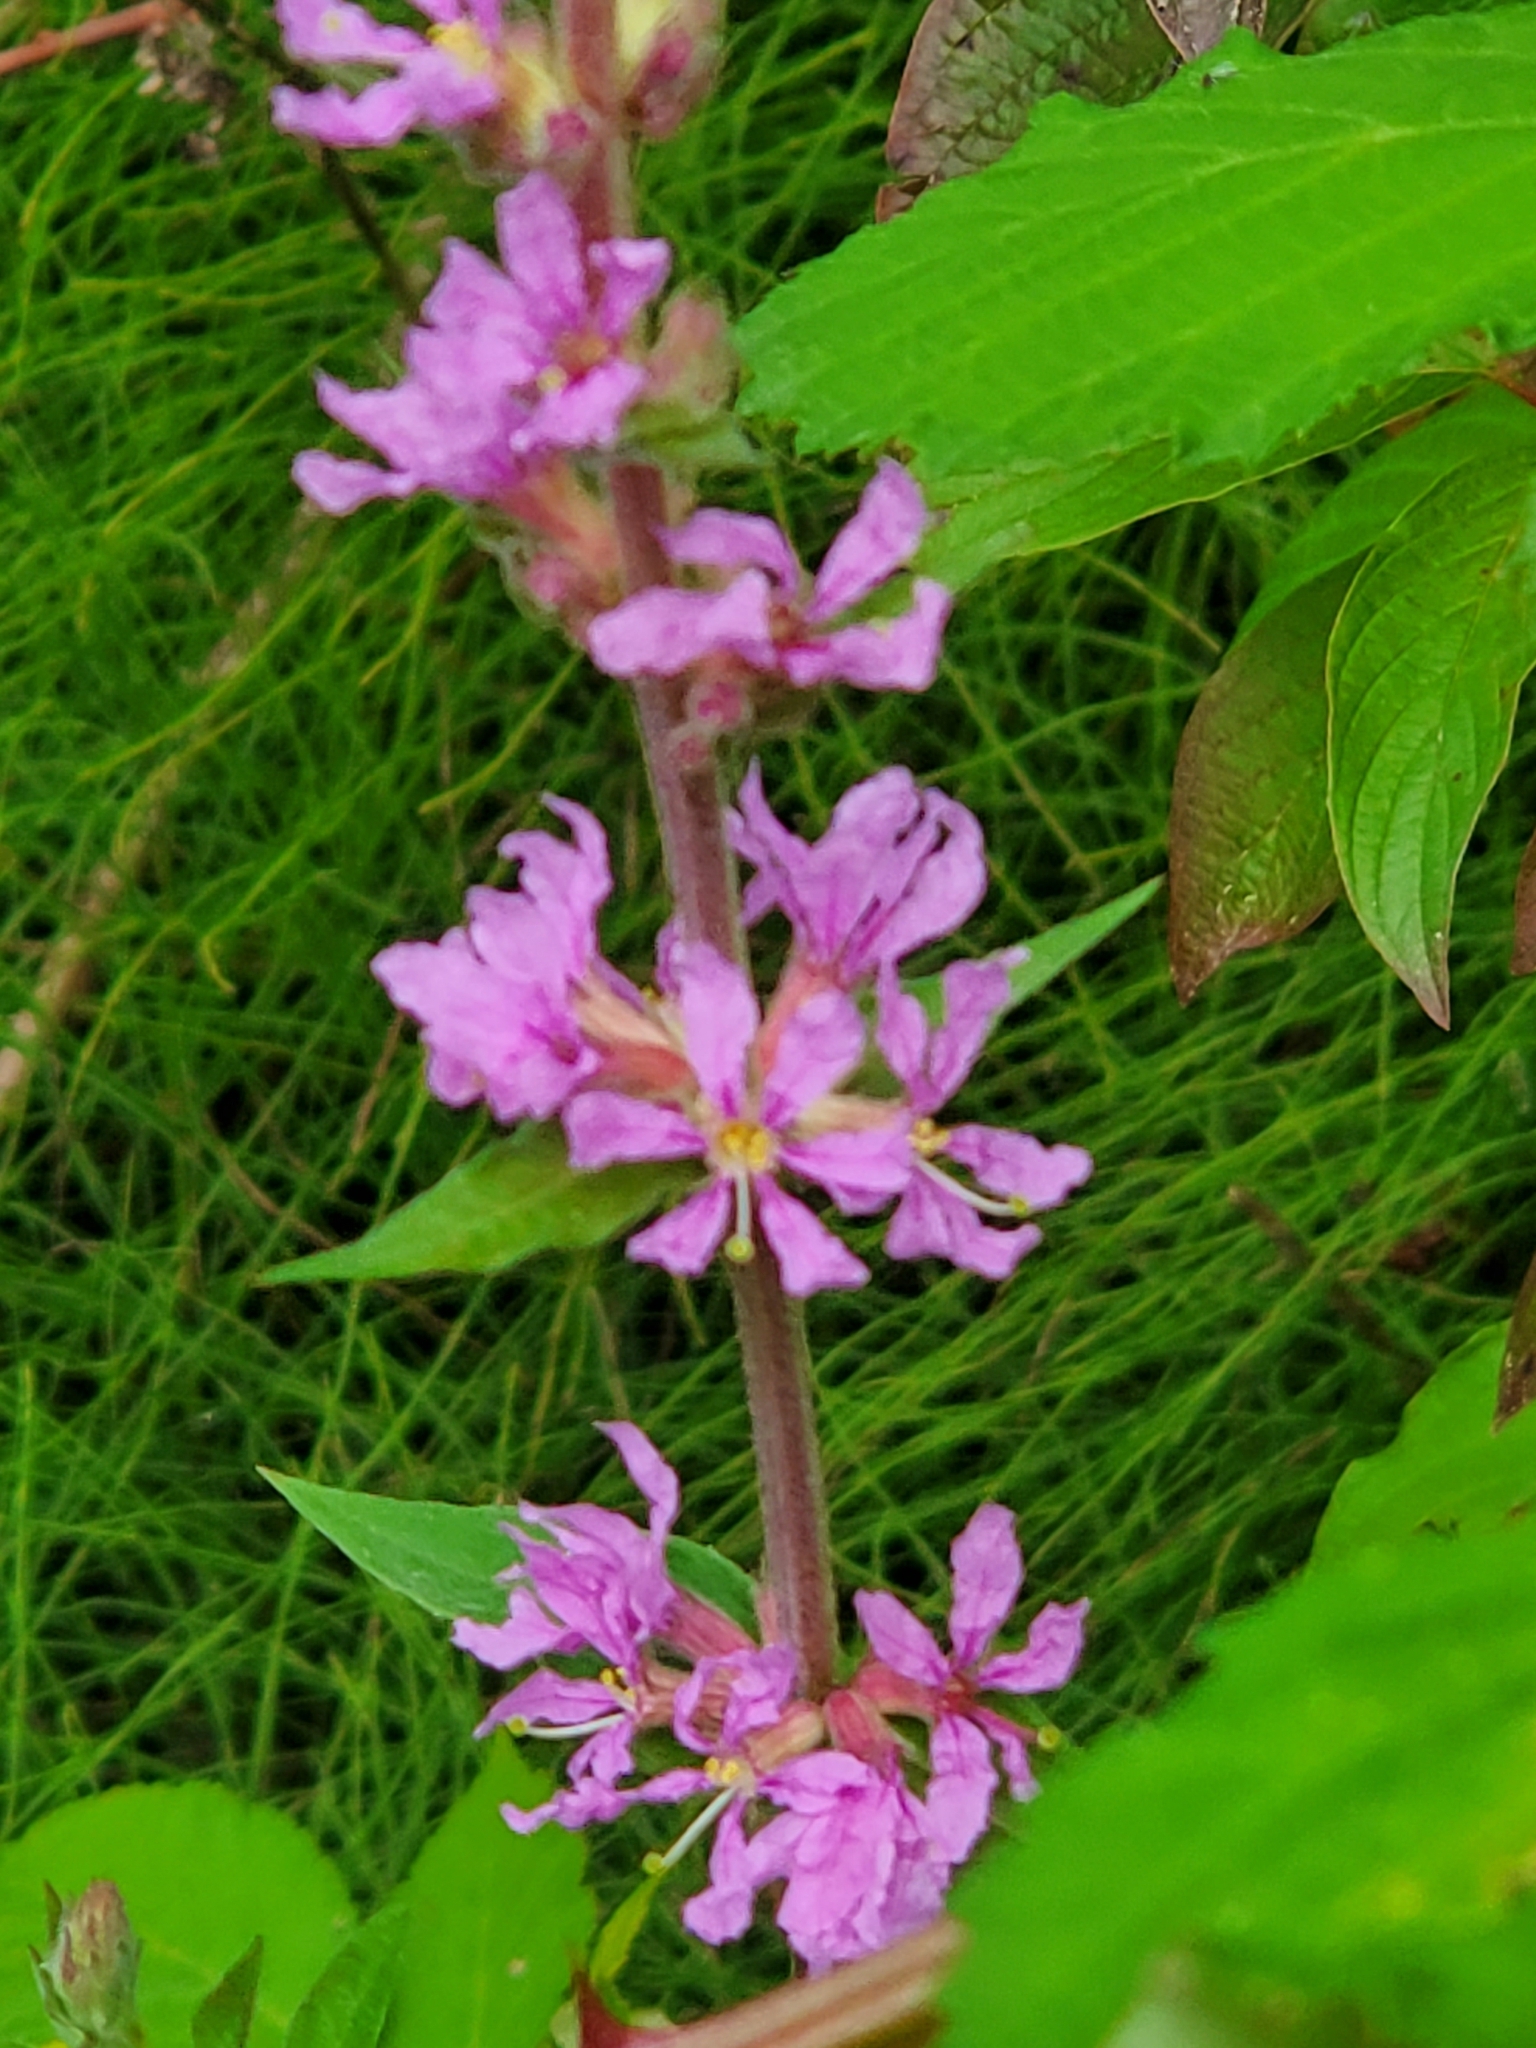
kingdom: Plantae
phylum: Tracheophyta
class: Magnoliopsida
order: Myrtales
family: Lythraceae
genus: Lythrum
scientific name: Lythrum salicaria
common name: Purple loosestrife
